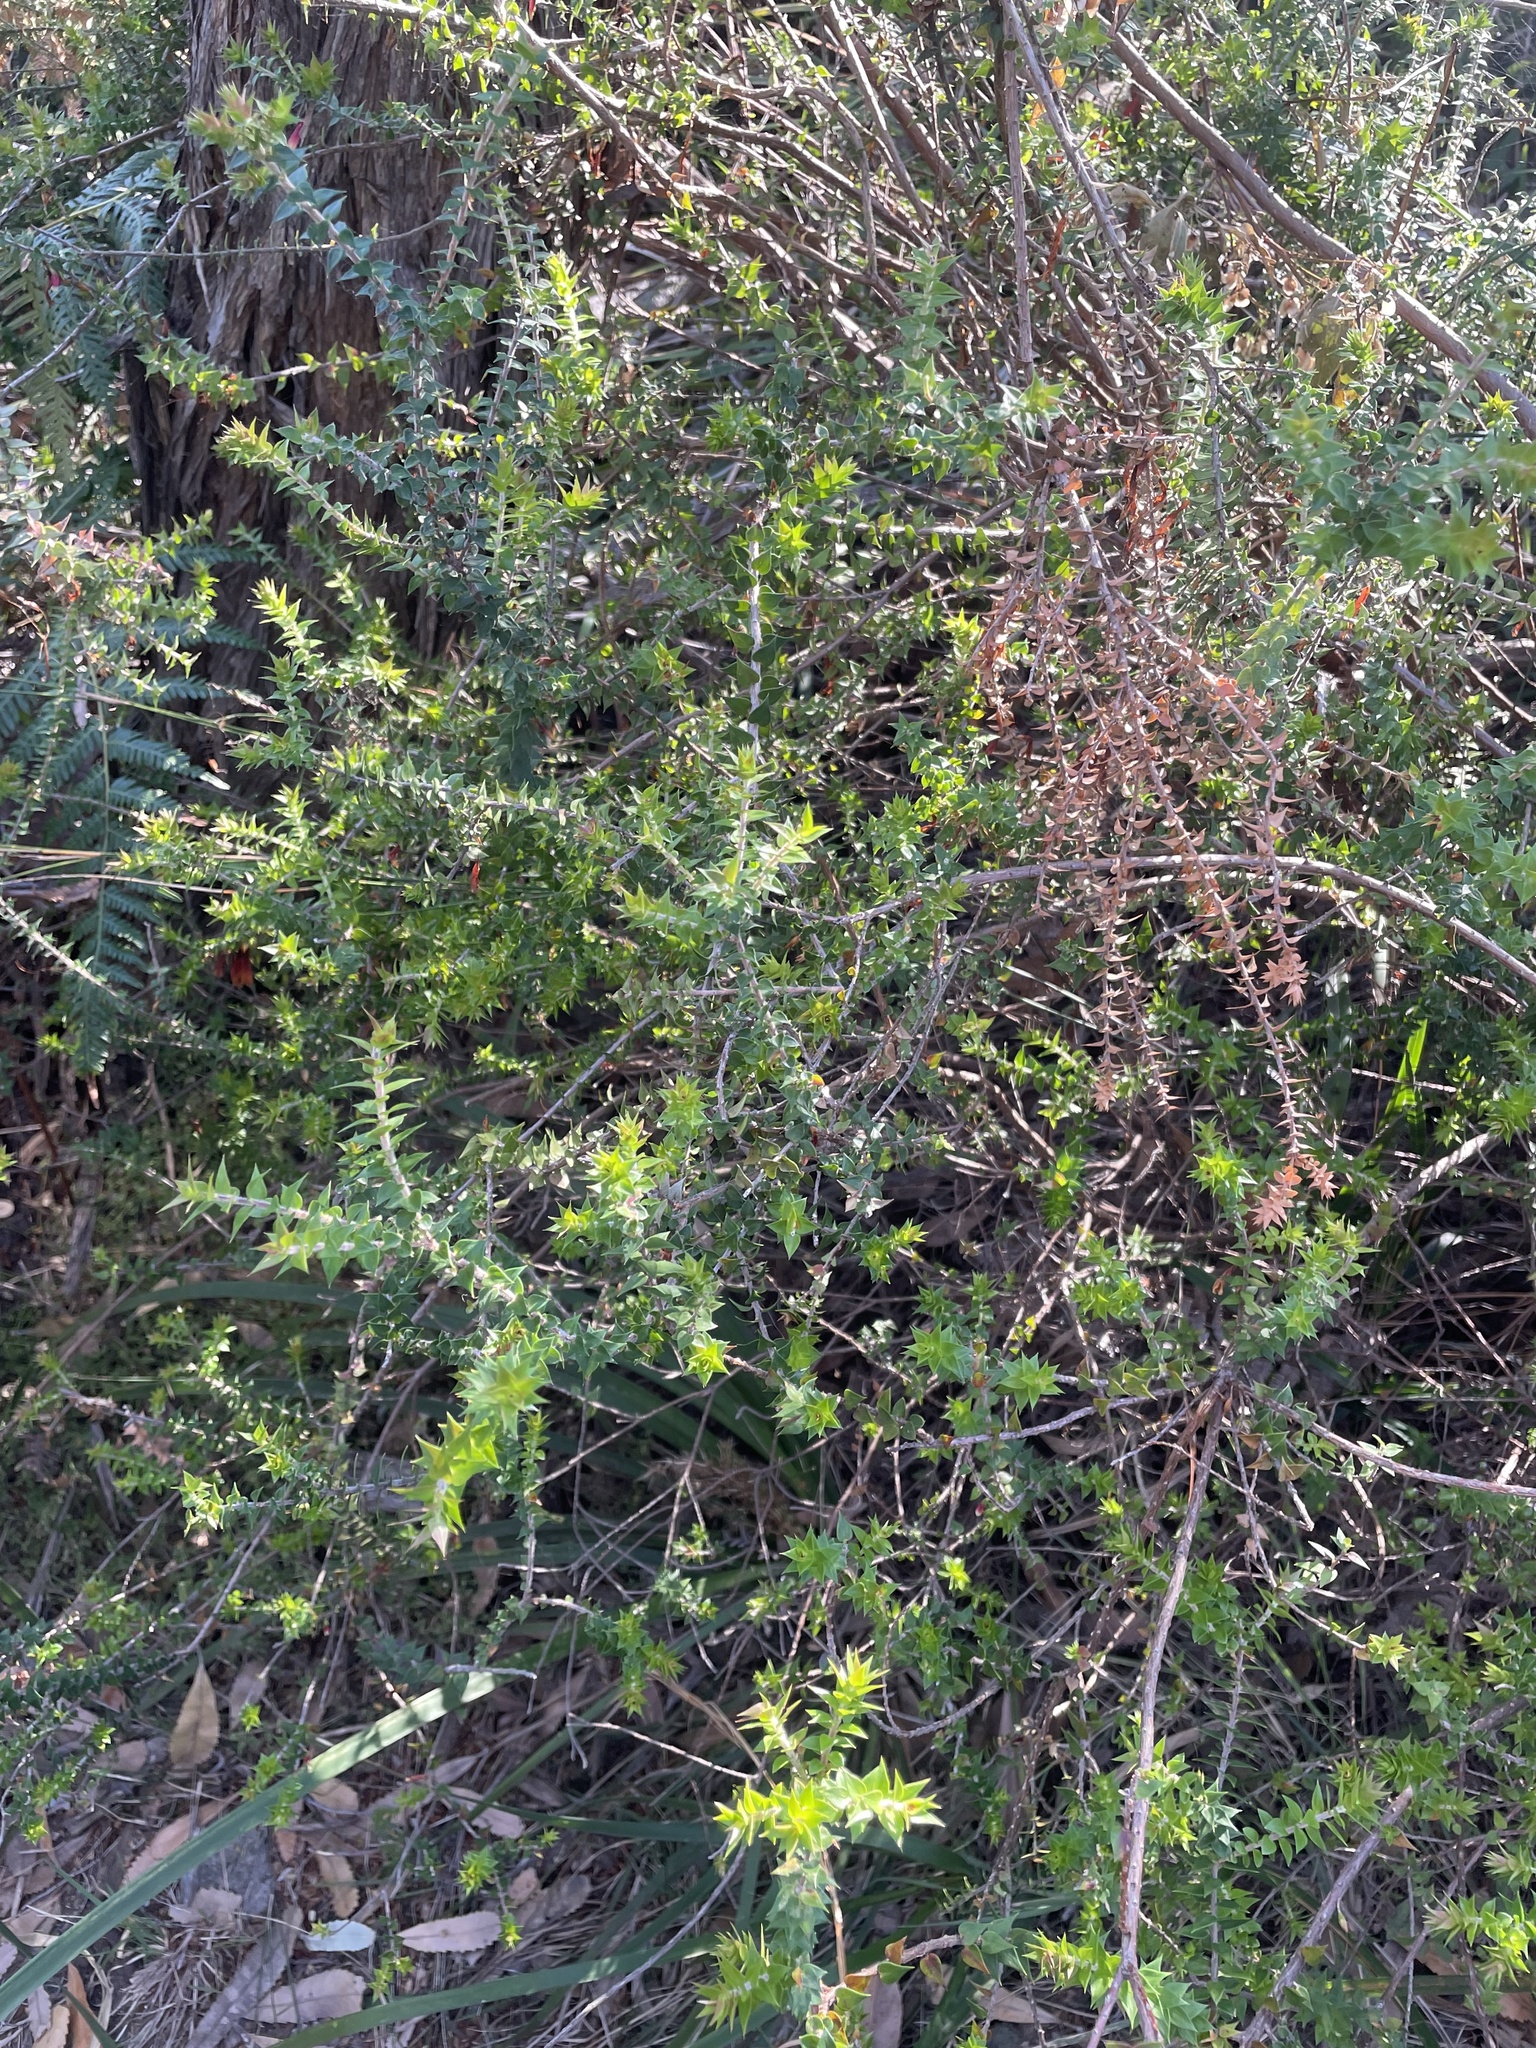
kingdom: Plantae
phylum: Tracheophyta
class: Magnoliopsida
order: Ericales
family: Ericaceae
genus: Epacris
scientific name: Epacris longiflora
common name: Fuchsia-heath
